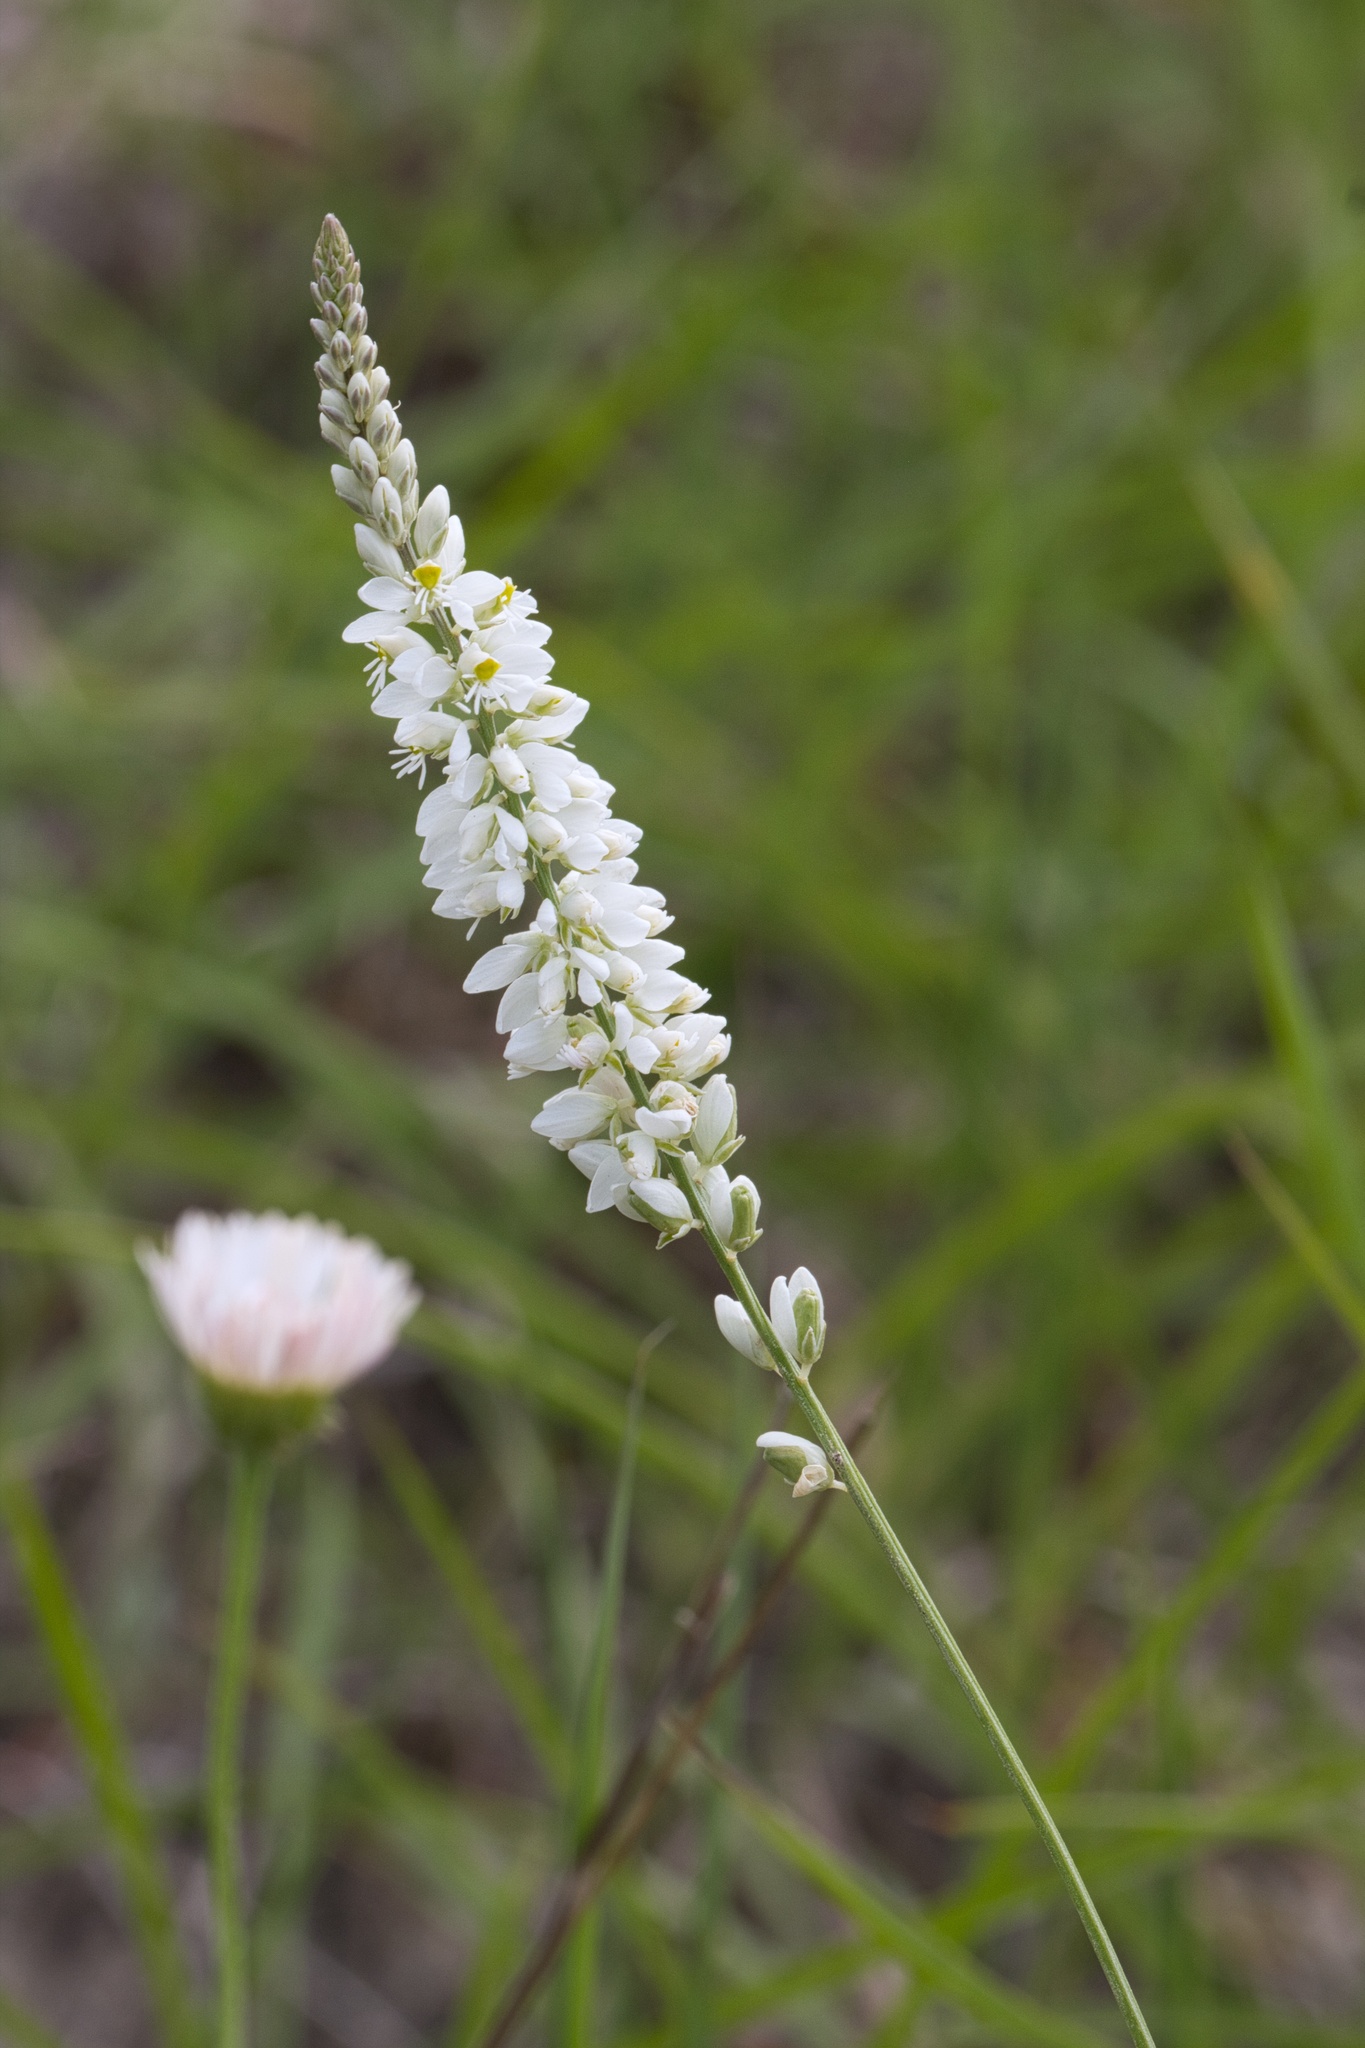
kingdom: Plantae
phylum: Tracheophyta
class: Magnoliopsida
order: Fabales
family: Polygalaceae
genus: Polygala
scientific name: Polygala alba
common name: White milkwort
